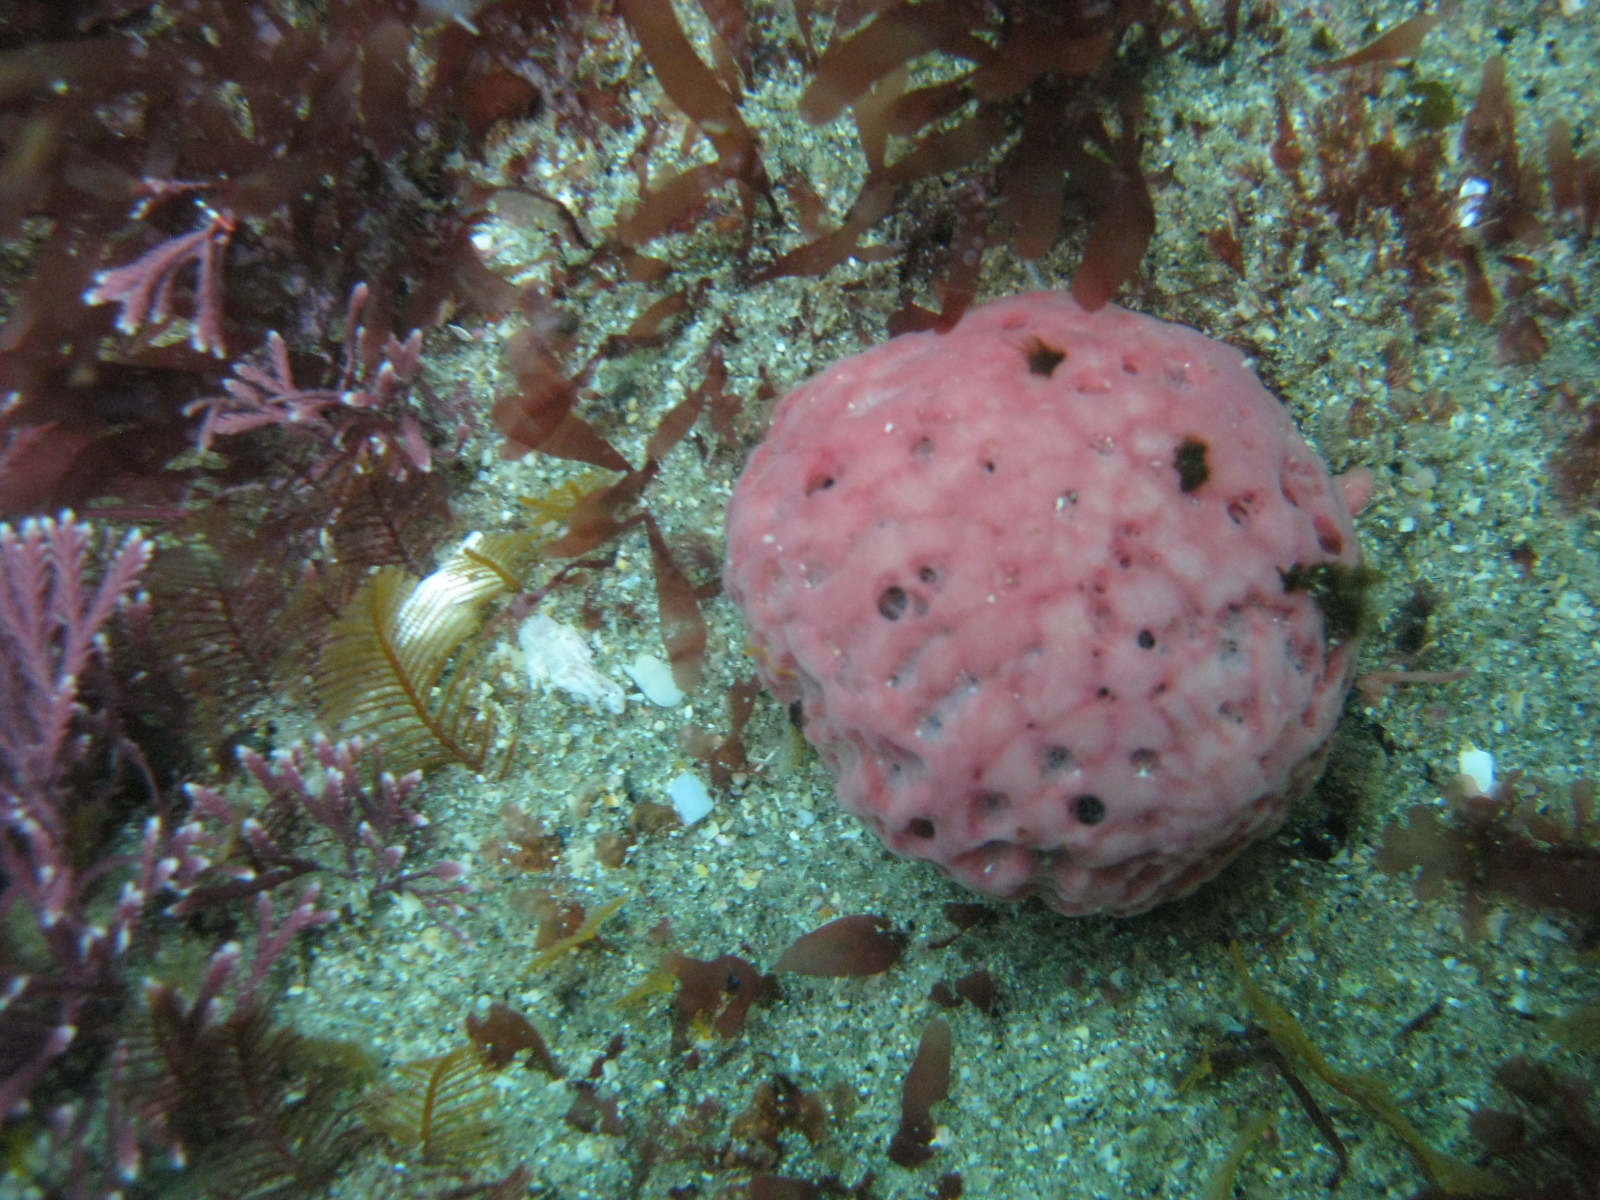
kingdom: Animalia
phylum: Porifera
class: Demospongiae
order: Tethyida
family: Tethyidae
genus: Tethya
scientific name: Tethya bergquistae
